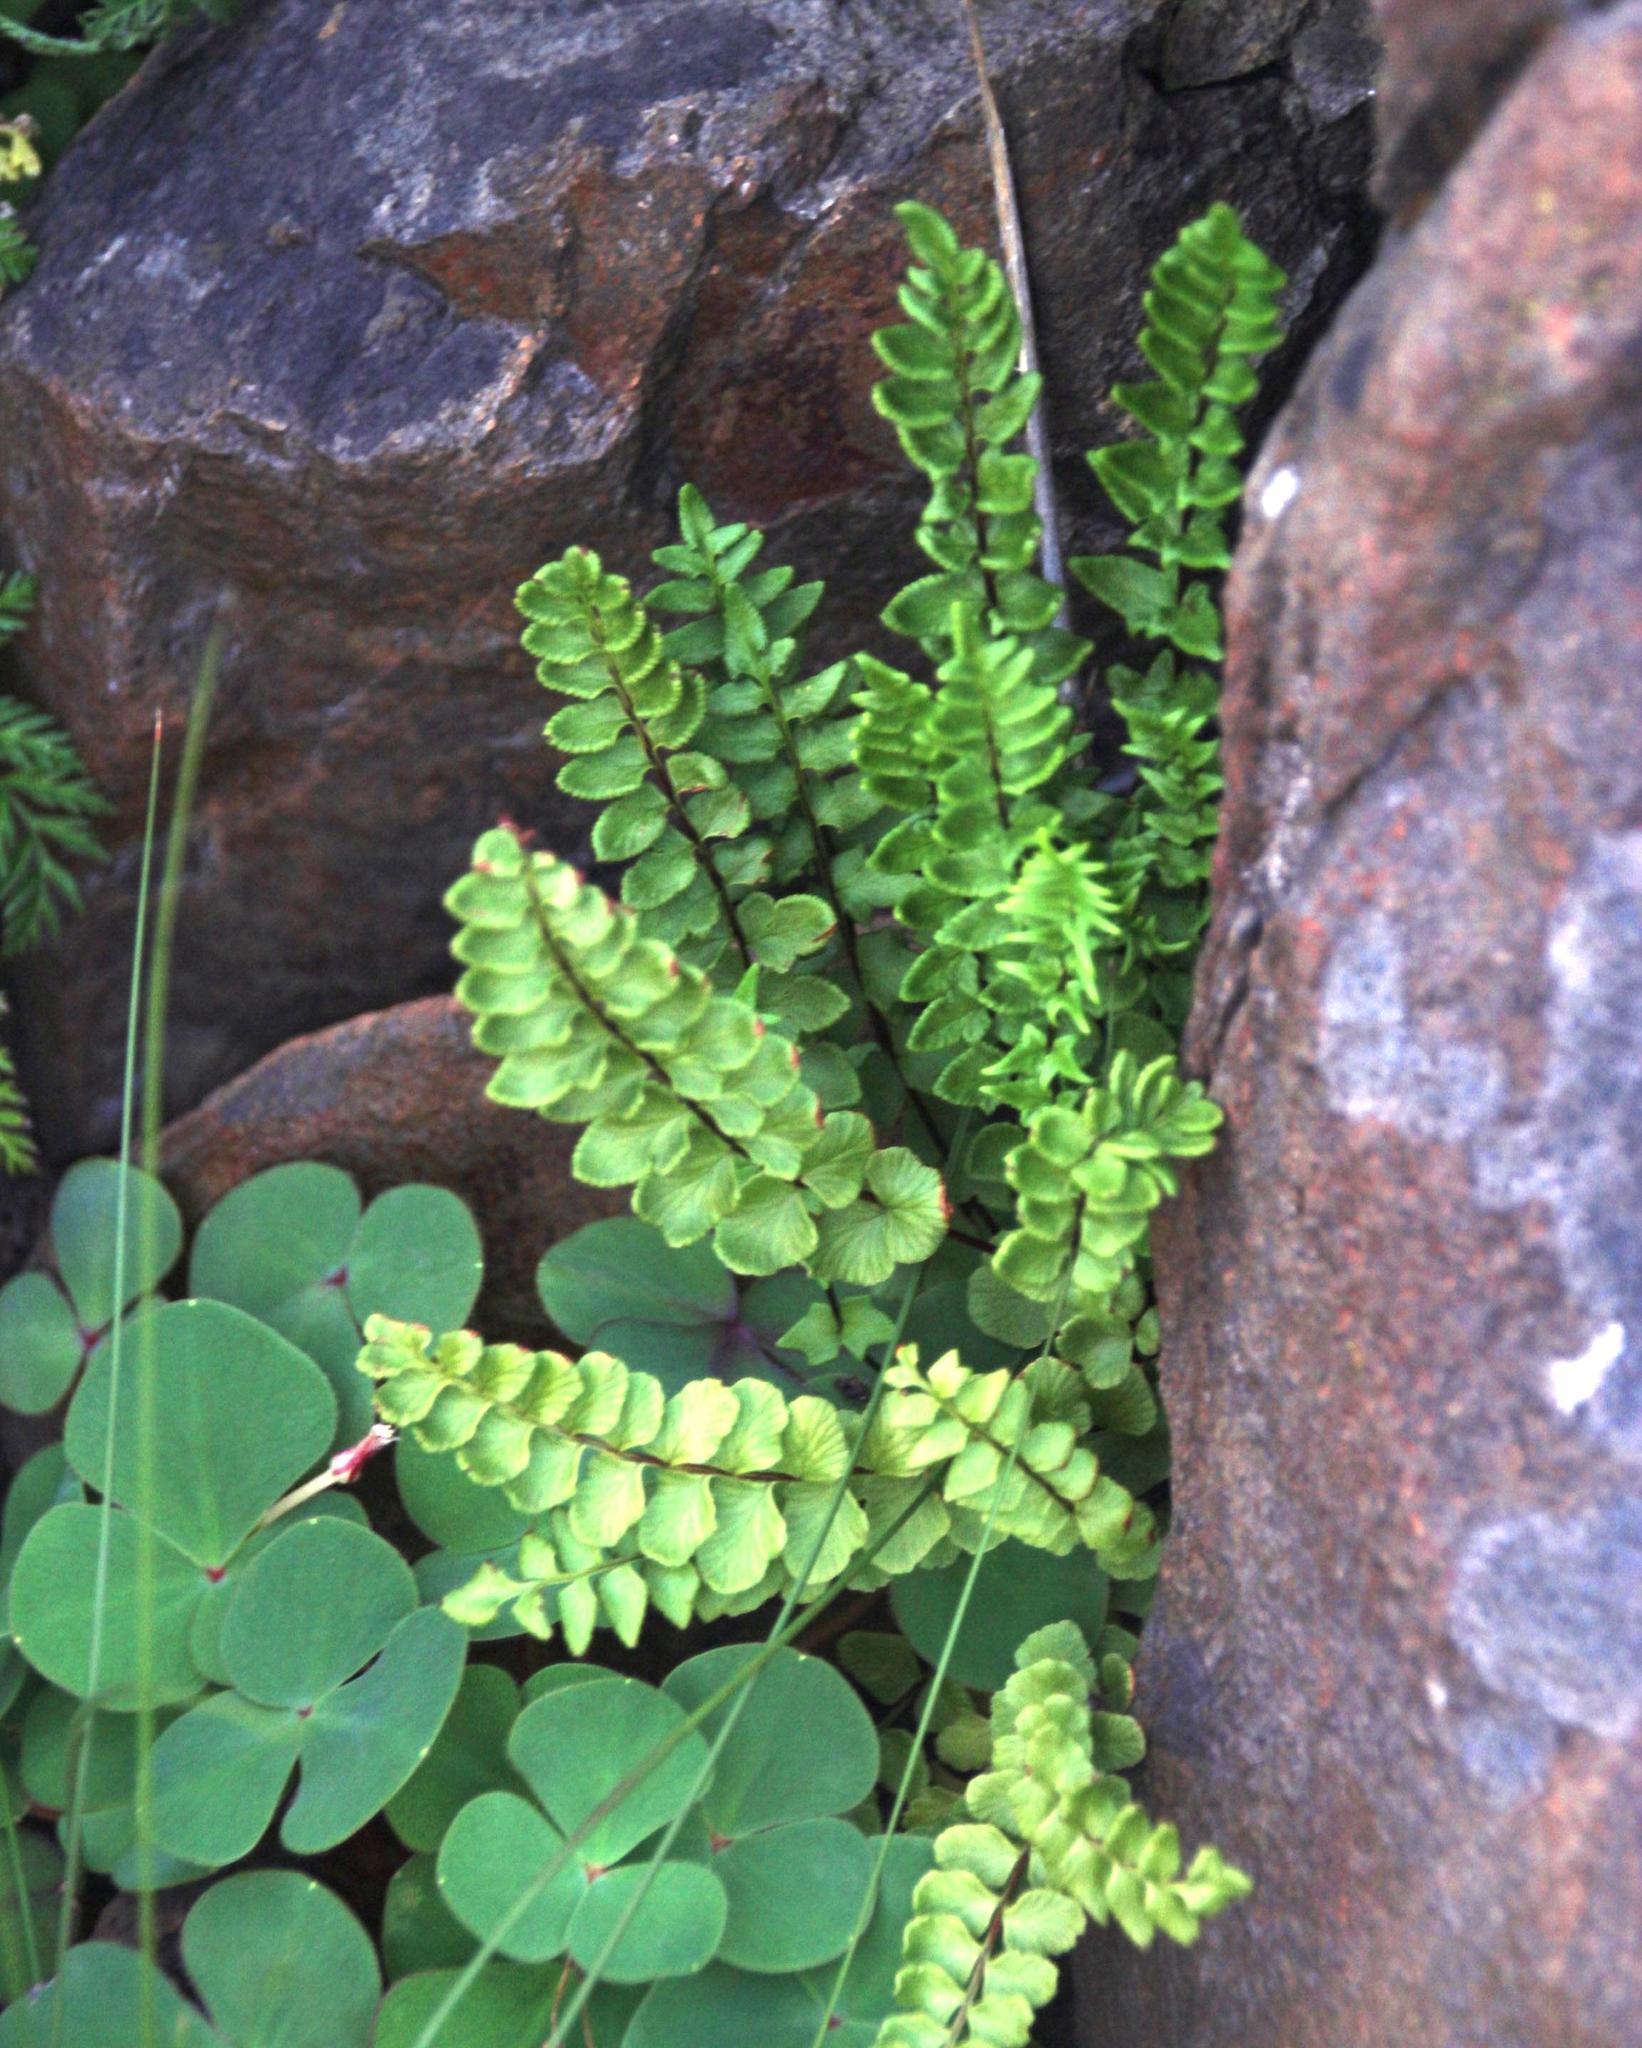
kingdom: Plantae
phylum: Tracheophyta
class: Polypodiopsida
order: Polypodiales
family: Pteridaceae
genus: Cheilanthes
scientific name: Cheilanthes hastata
